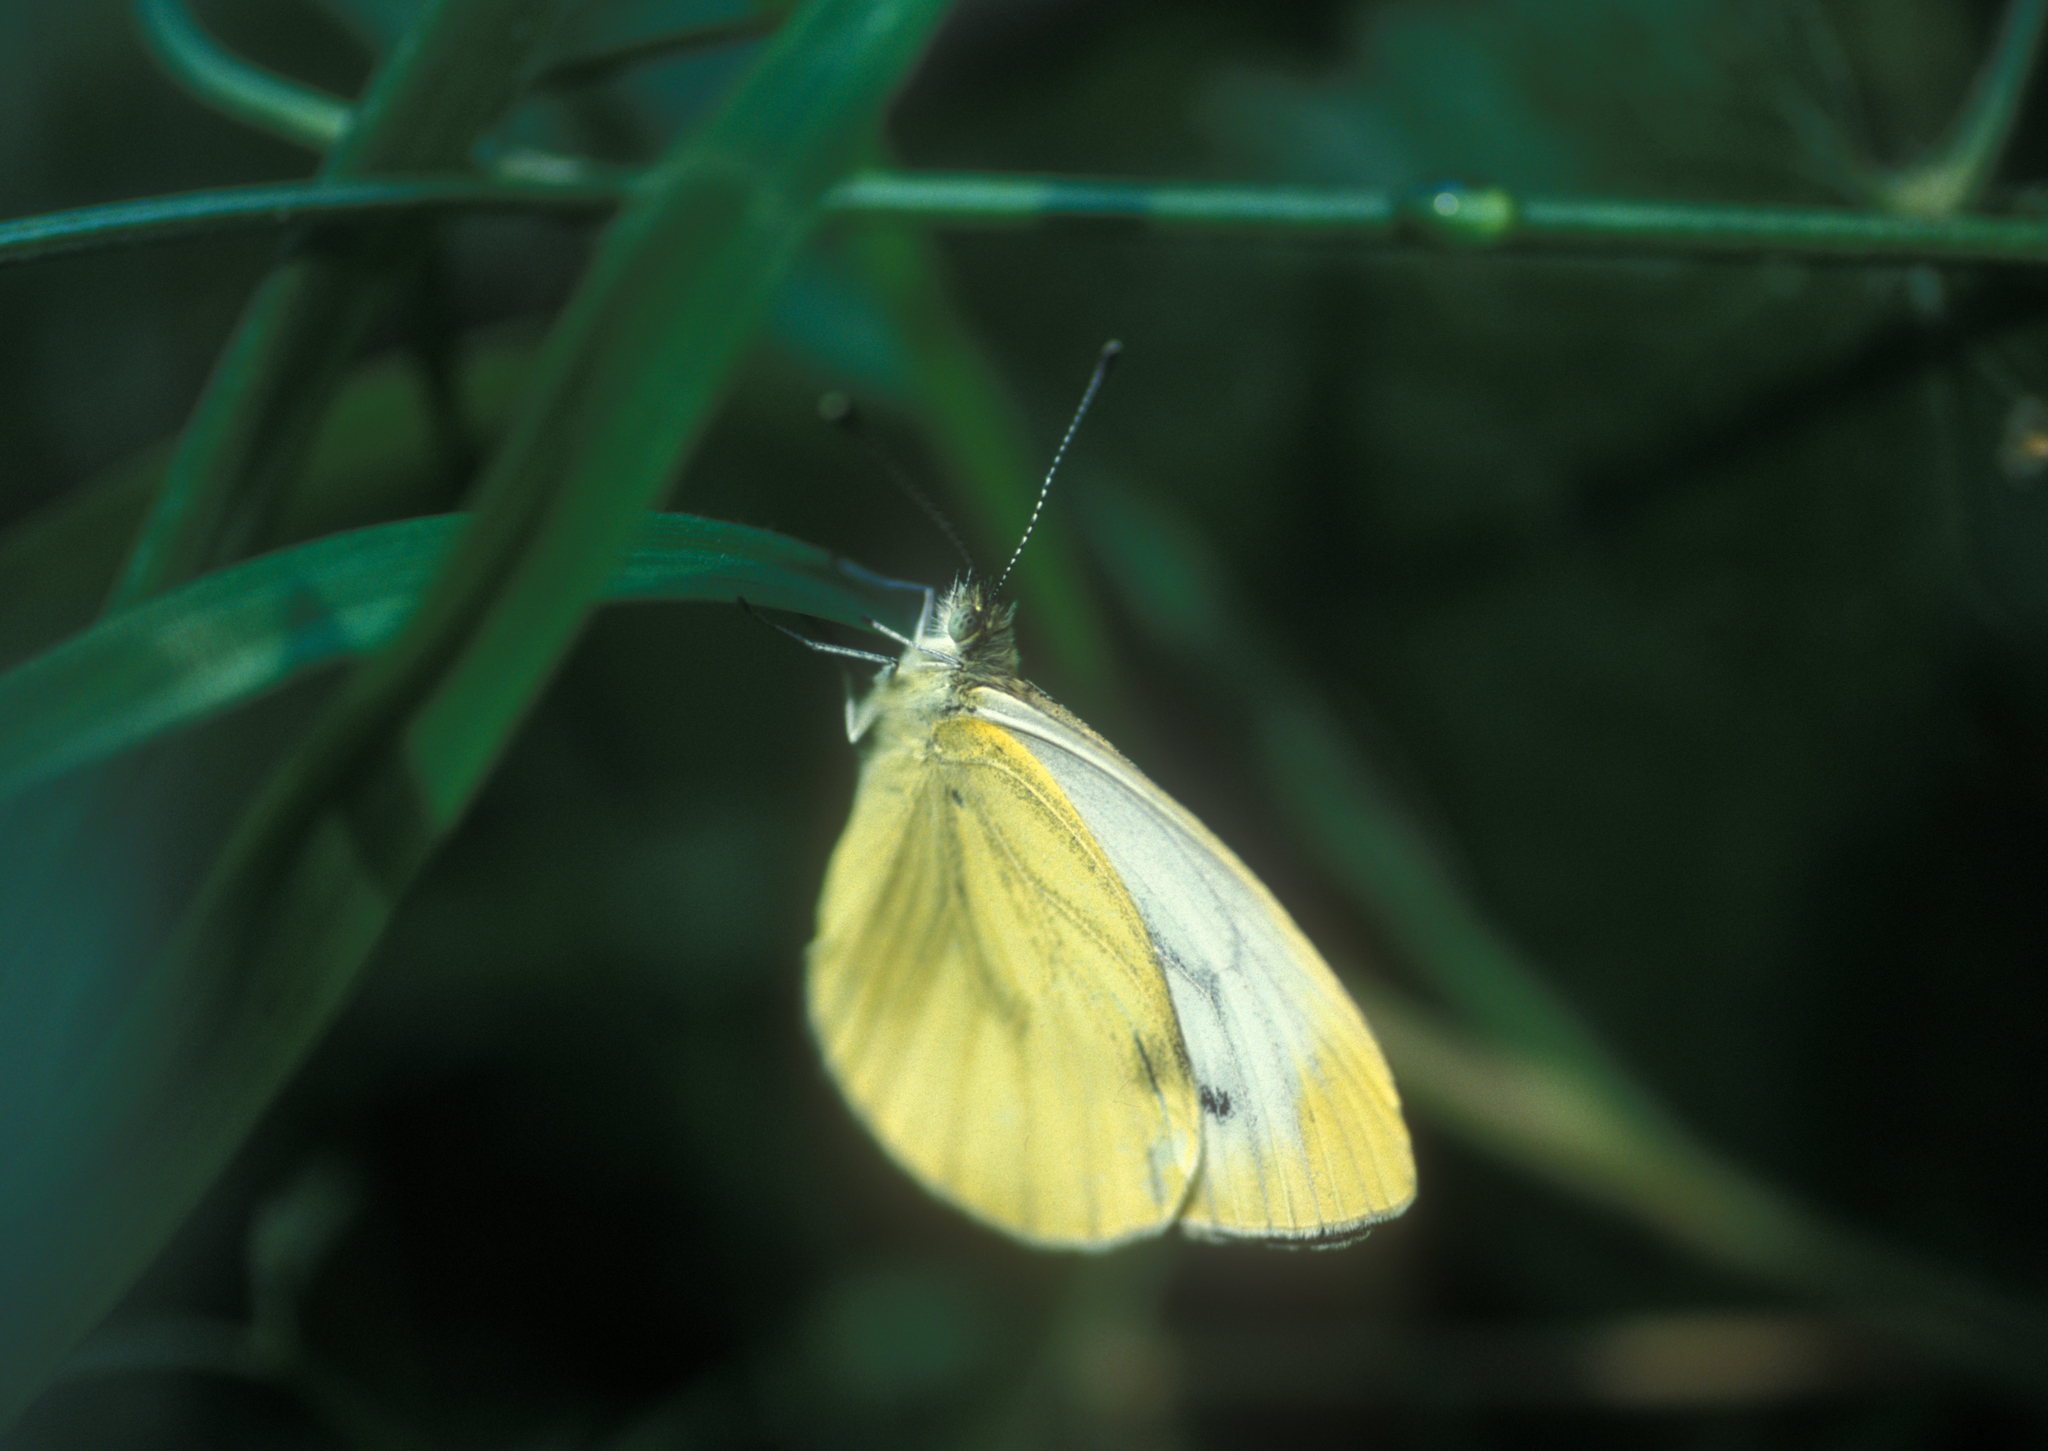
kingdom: Animalia
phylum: Arthropoda
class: Insecta
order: Lepidoptera
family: Pieridae
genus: Pieris
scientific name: Pieris napi
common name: Green-veined white
